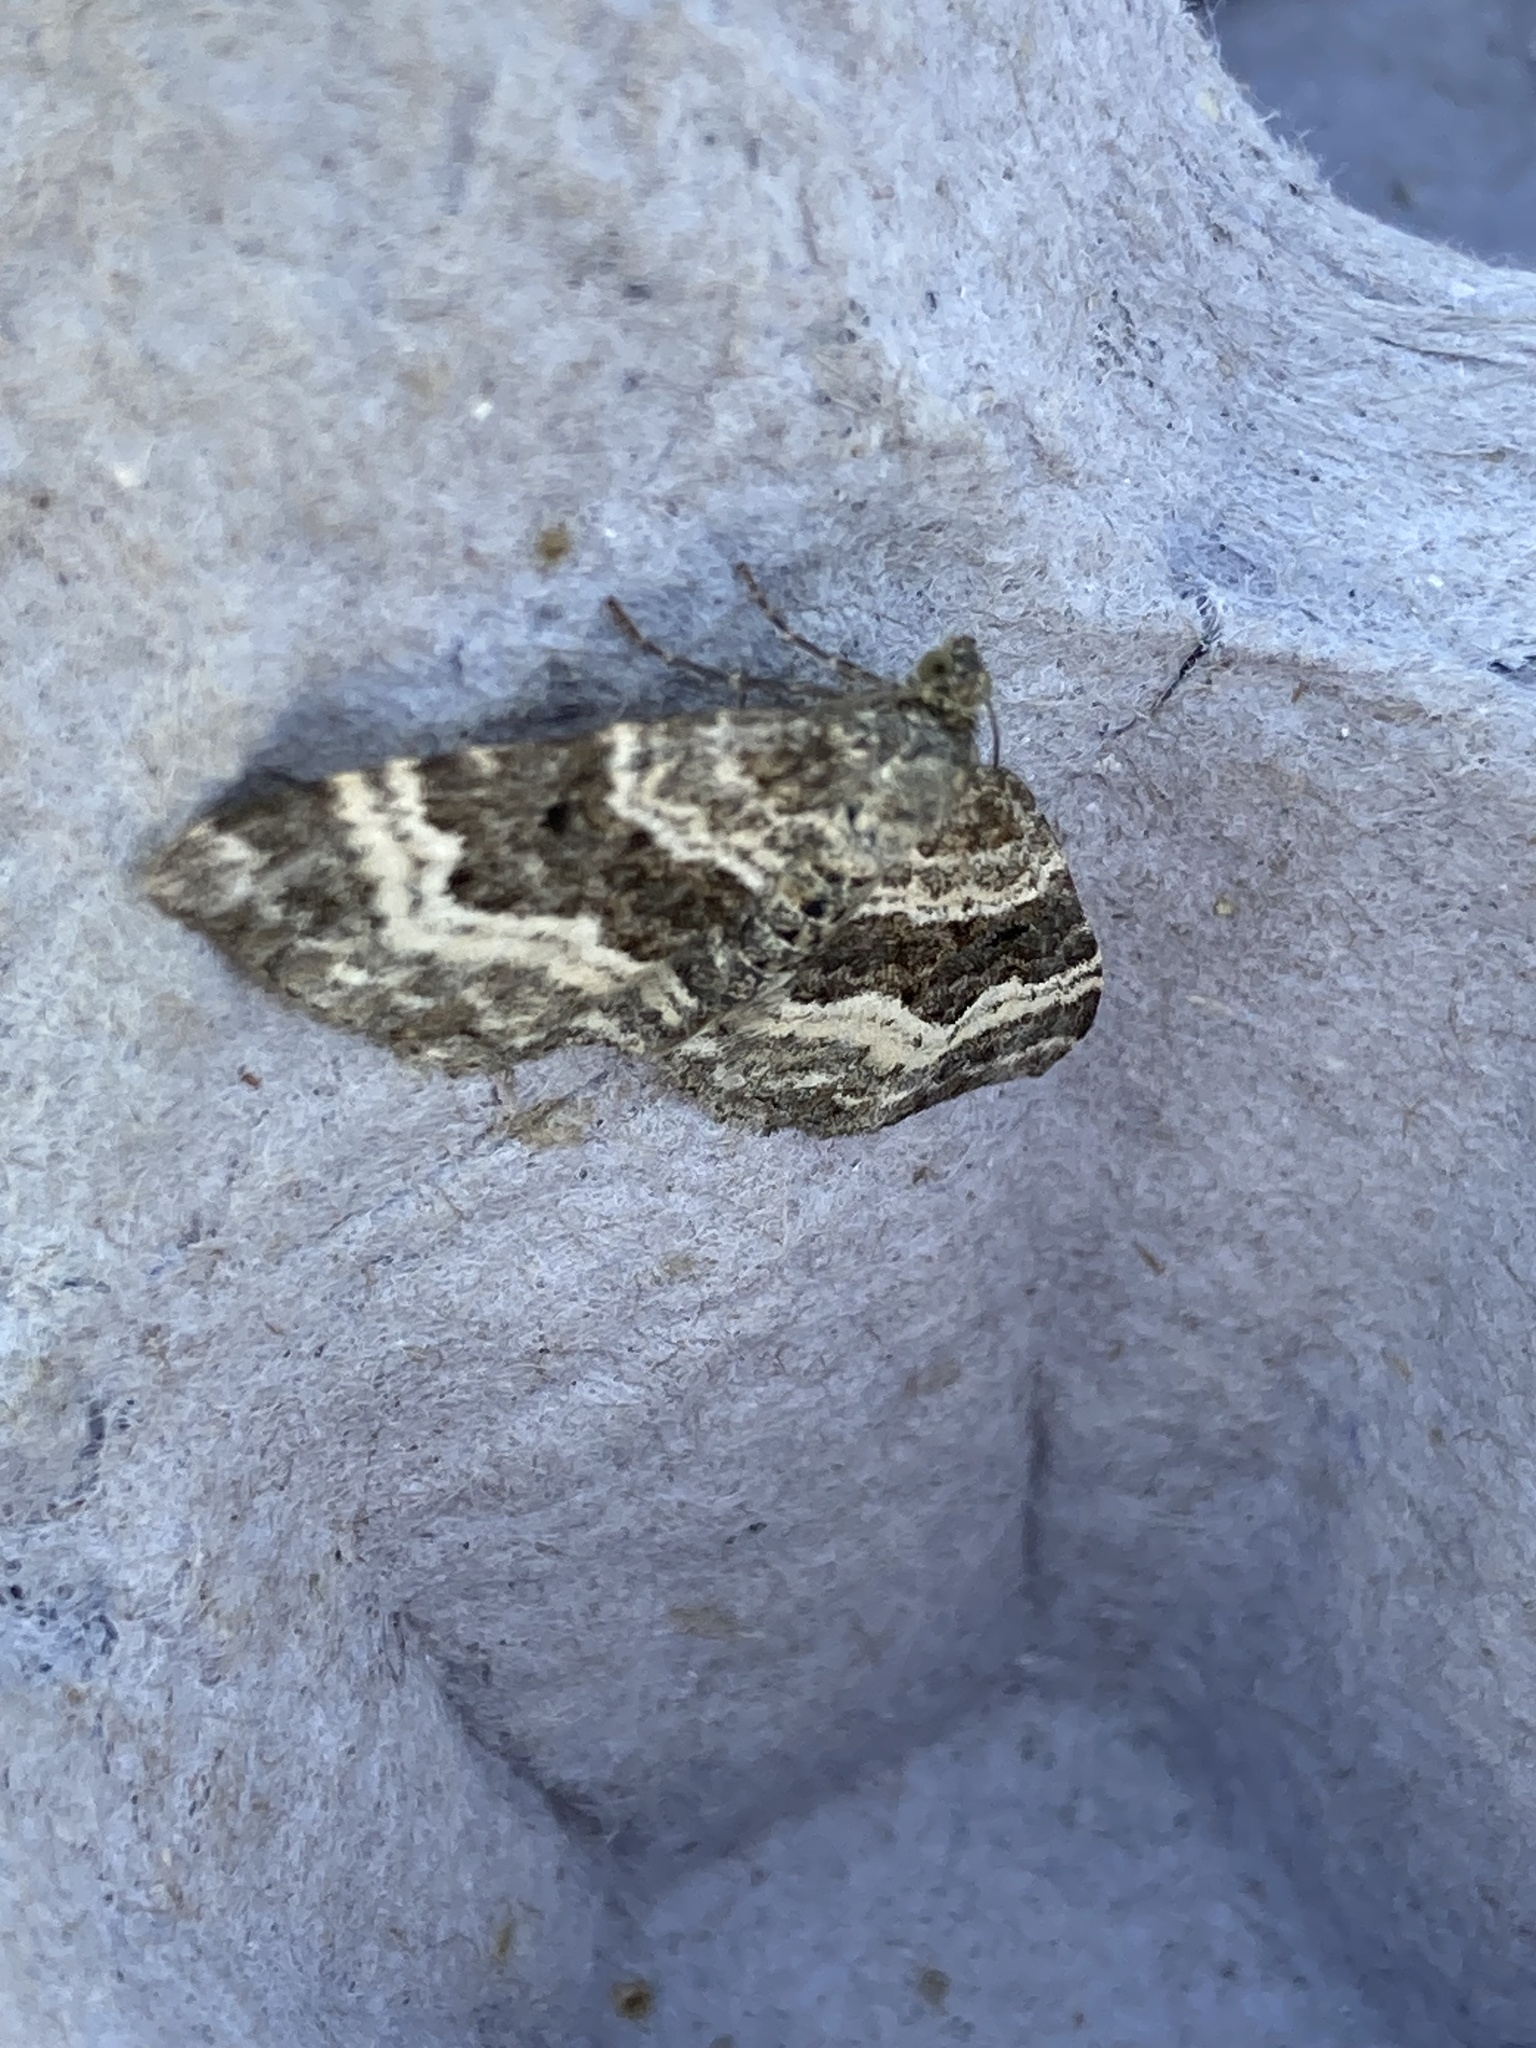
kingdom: Animalia
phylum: Arthropoda
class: Insecta
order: Lepidoptera
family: Geometridae
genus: Epirrhoe
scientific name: Epirrhoe alternata
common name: Common carpet
